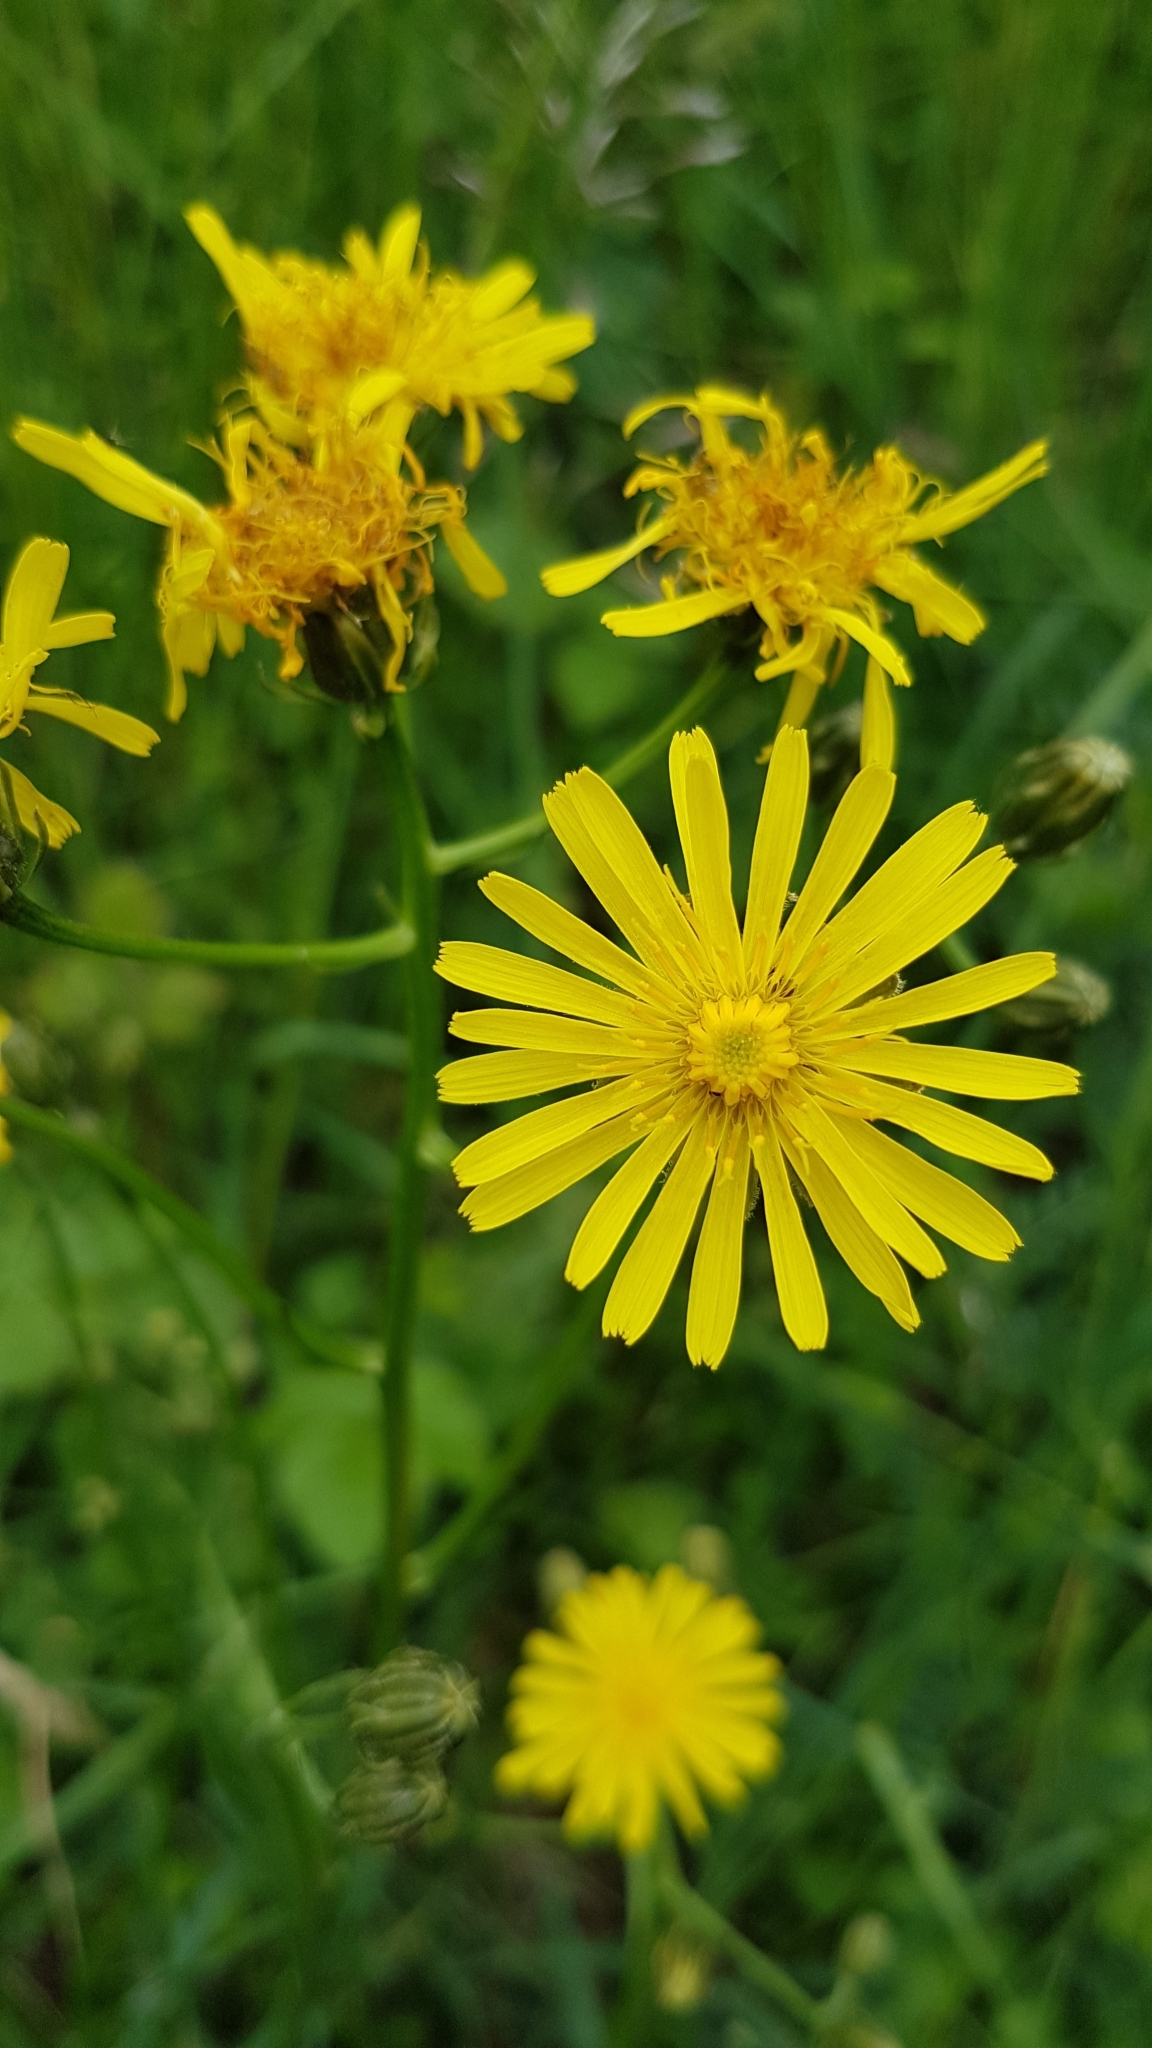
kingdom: Plantae
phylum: Tracheophyta
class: Magnoliopsida
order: Asterales
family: Asteraceae
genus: Crepis
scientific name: Crepis biennis
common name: Rough hawk's-beard
